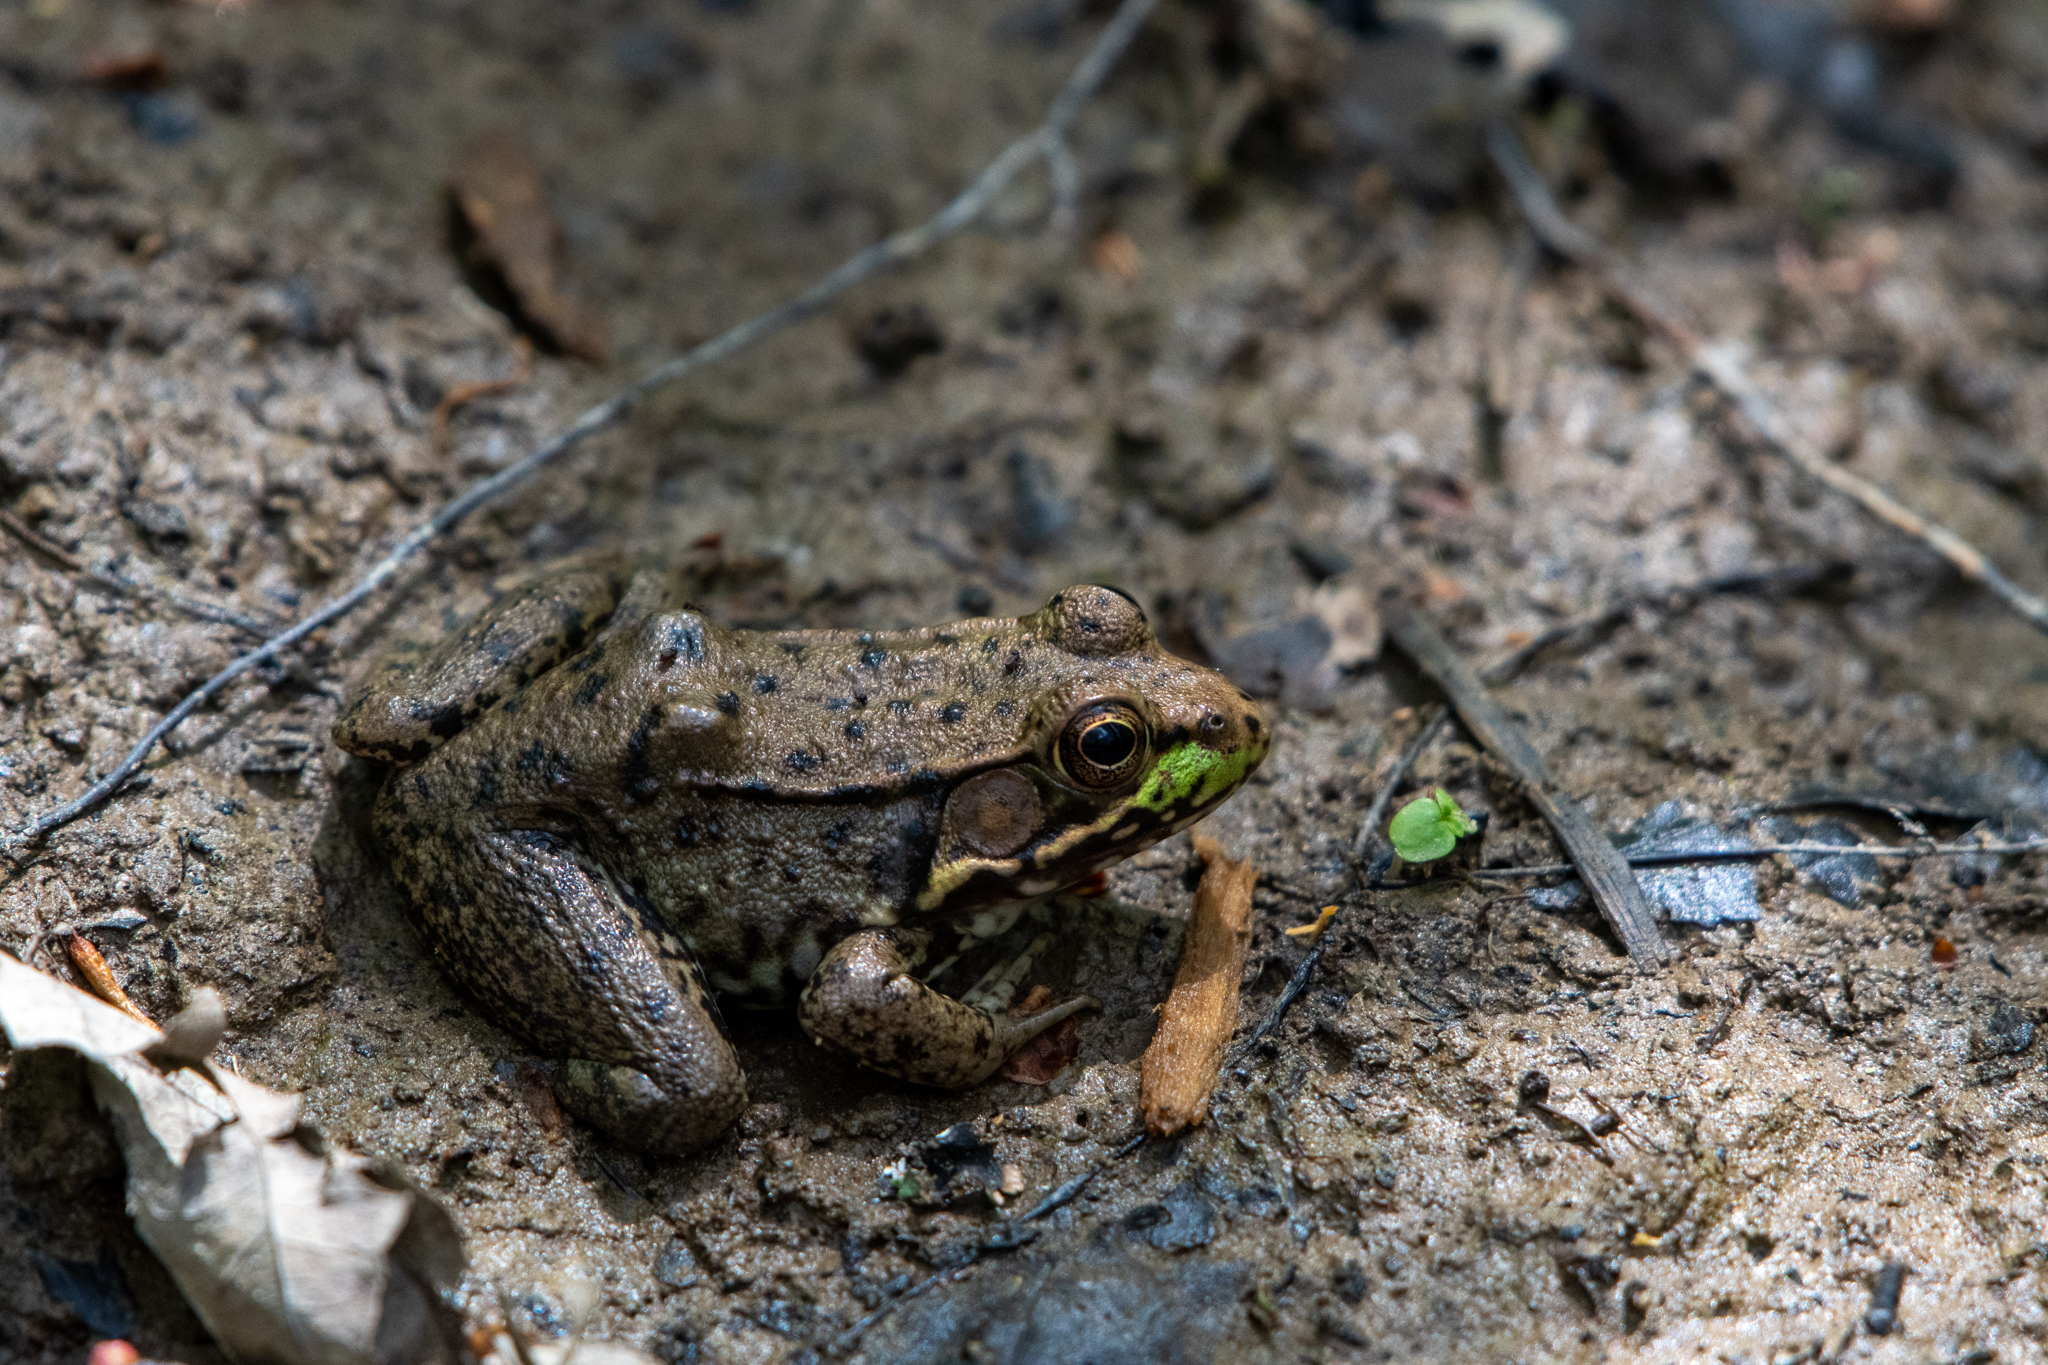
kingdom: Animalia
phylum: Chordata
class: Amphibia
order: Anura
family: Ranidae
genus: Lithobates
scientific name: Lithobates clamitans
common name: Green frog
